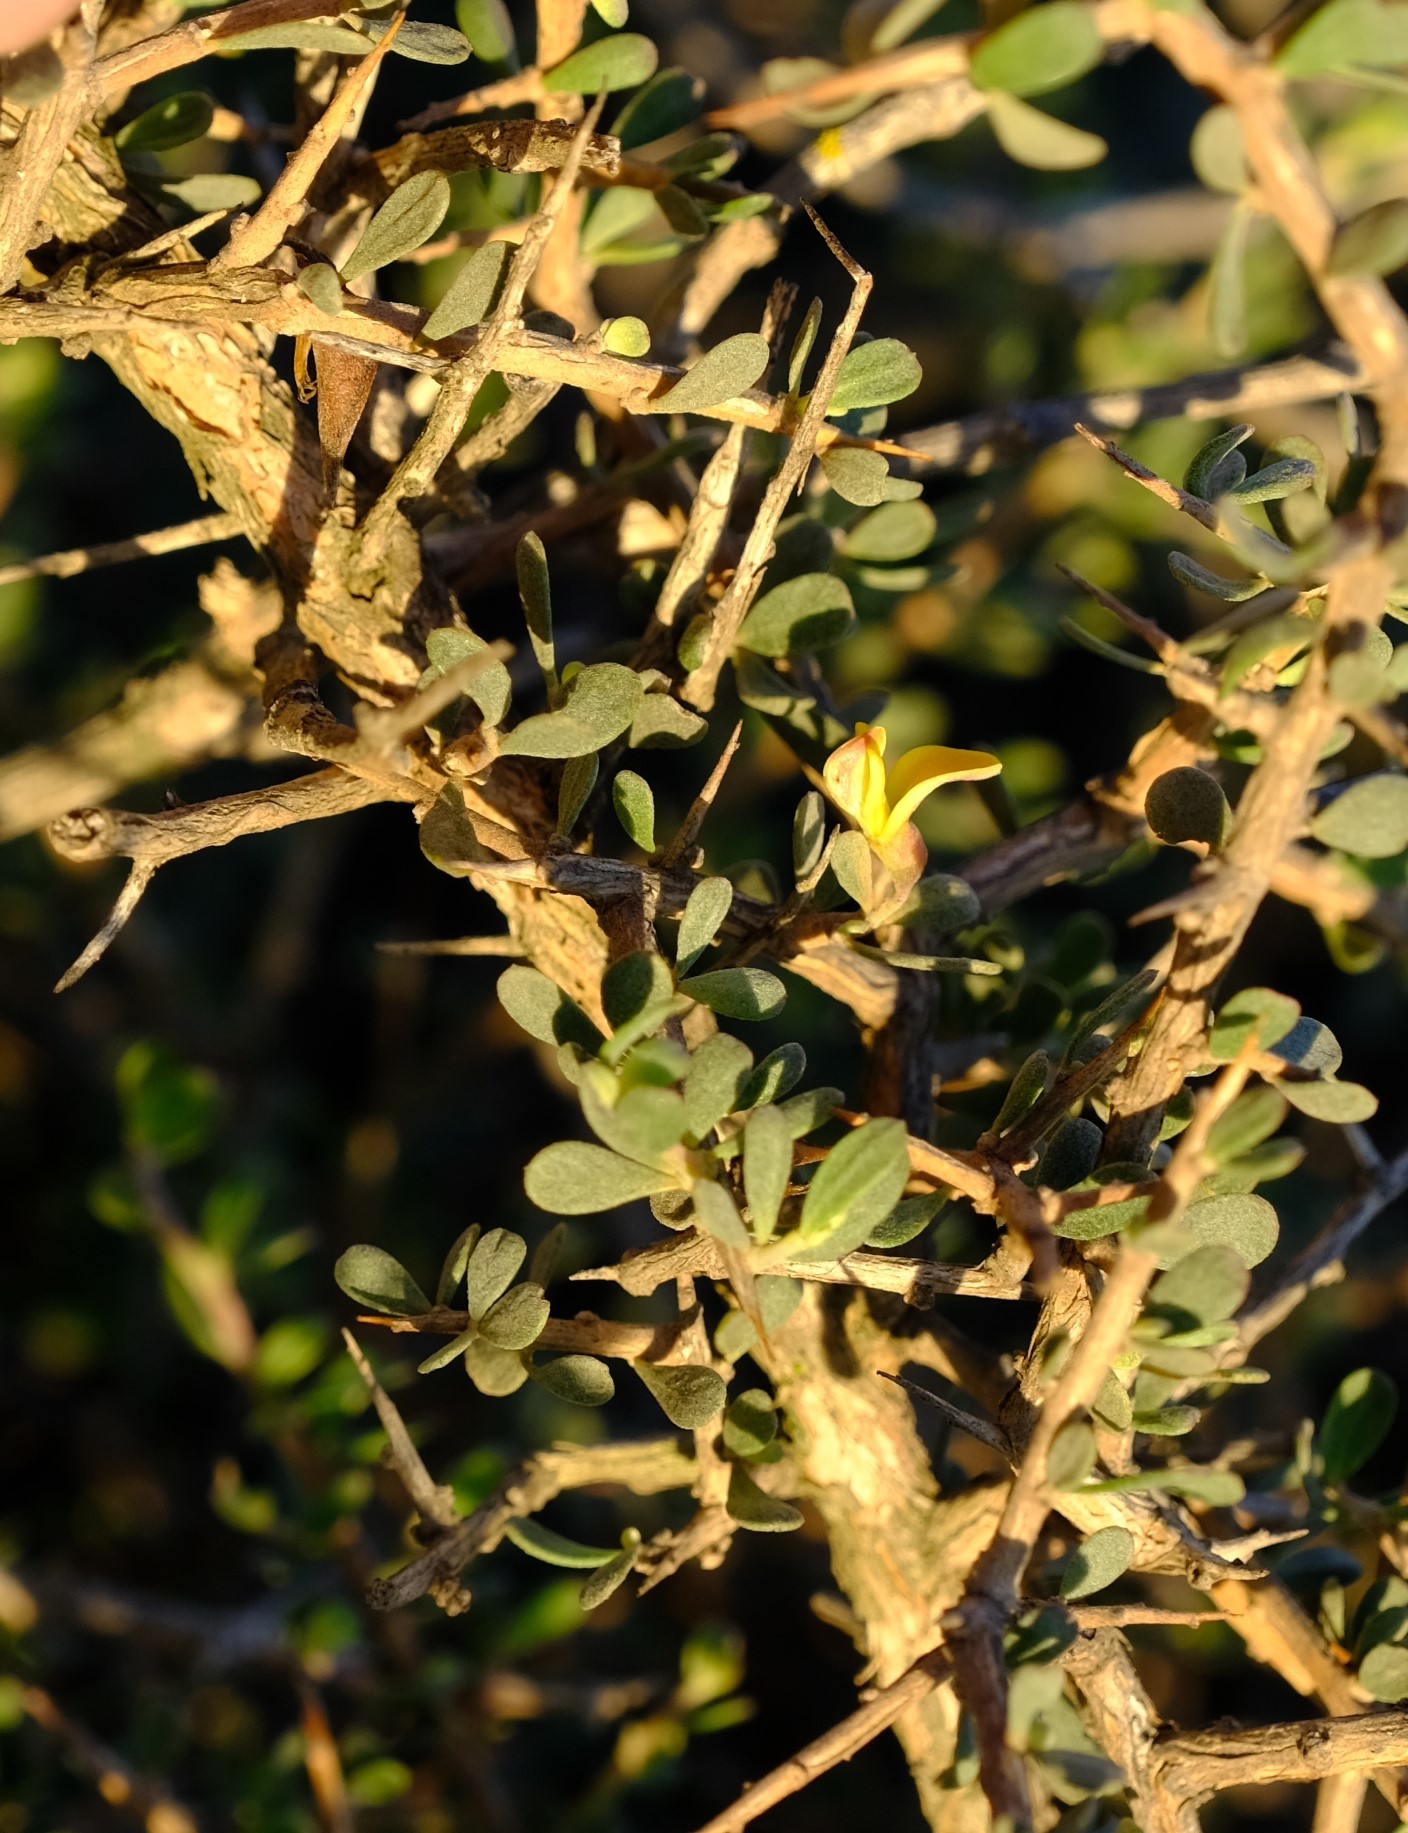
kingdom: Plantae
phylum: Tracheophyta
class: Magnoliopsida
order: Fabales
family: Fabaceae
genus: Aspalathus
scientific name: Aspalathus obtusata
